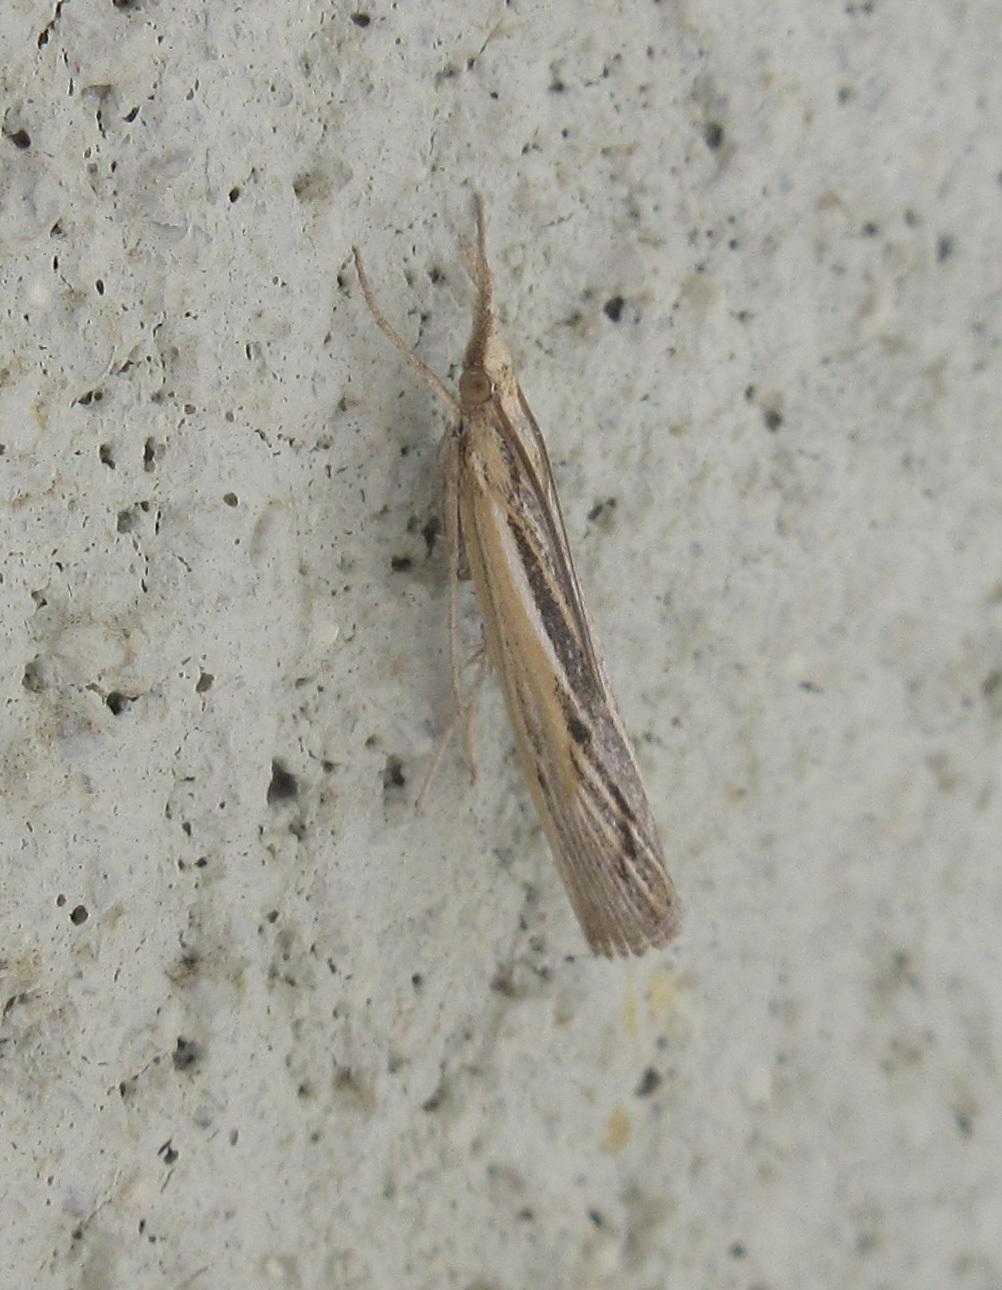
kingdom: Animalia
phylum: Arthropoda
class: Insecta
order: Lepidoptera
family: Crambidae
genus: Pediasia
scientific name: Pediasia trisecta
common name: Sod webworm moth
